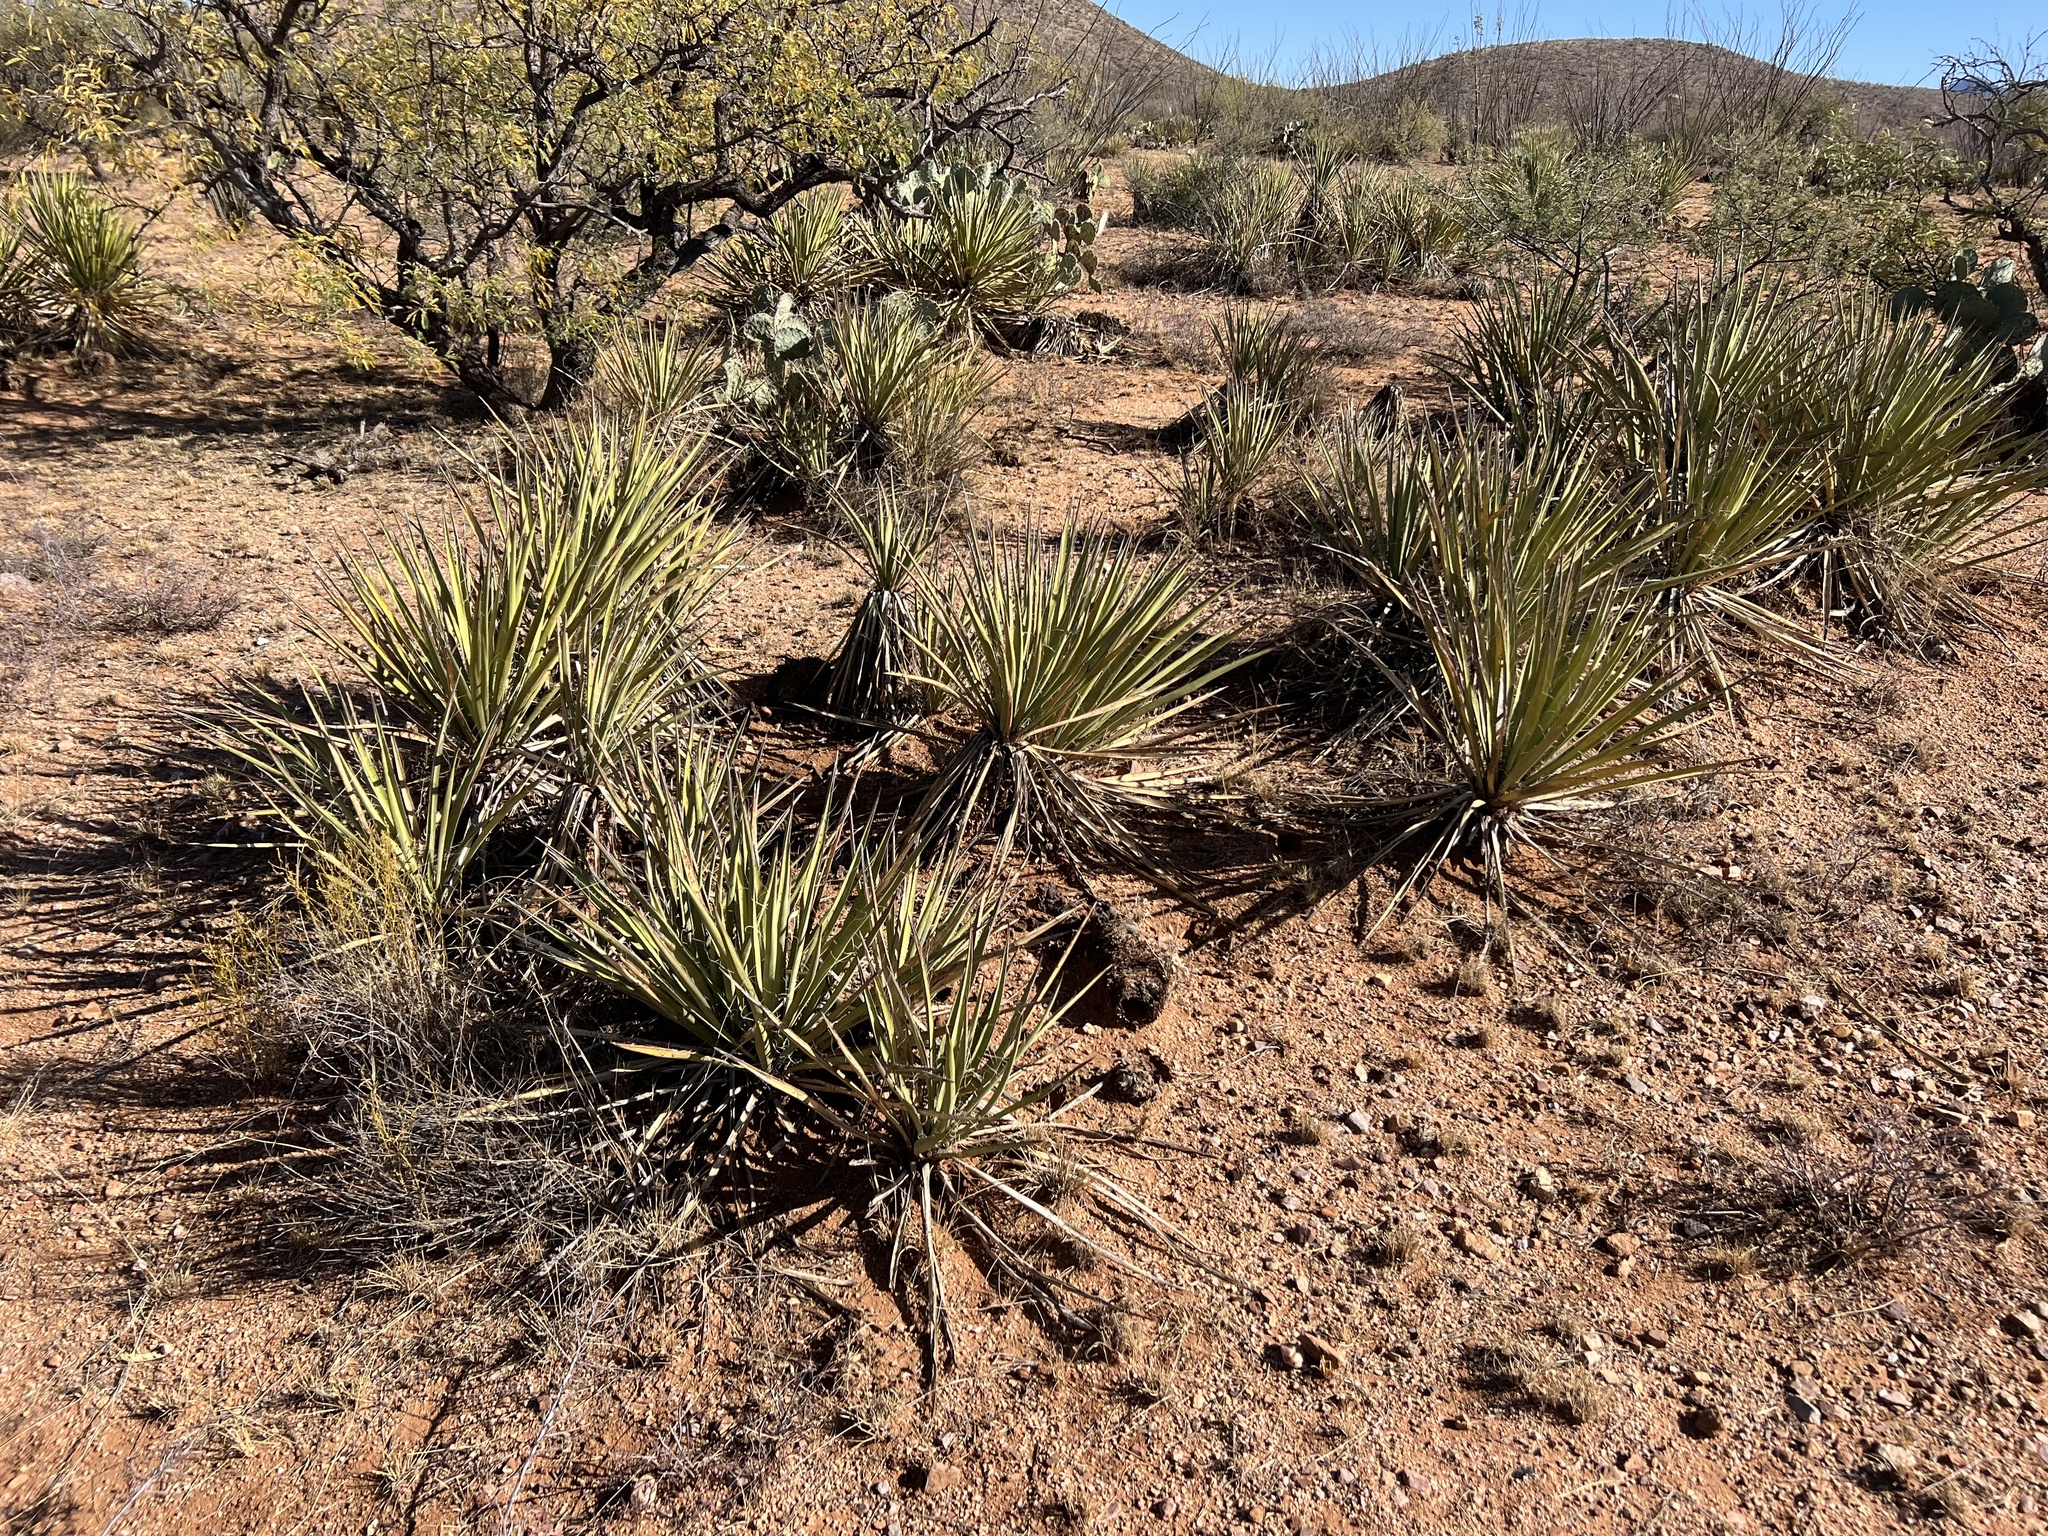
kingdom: Plantae
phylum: Tracheophyta
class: Liliopsida
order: Asparagales
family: Asparagaceae
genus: Yucca
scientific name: Yucca baccata
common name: Banana yucca
